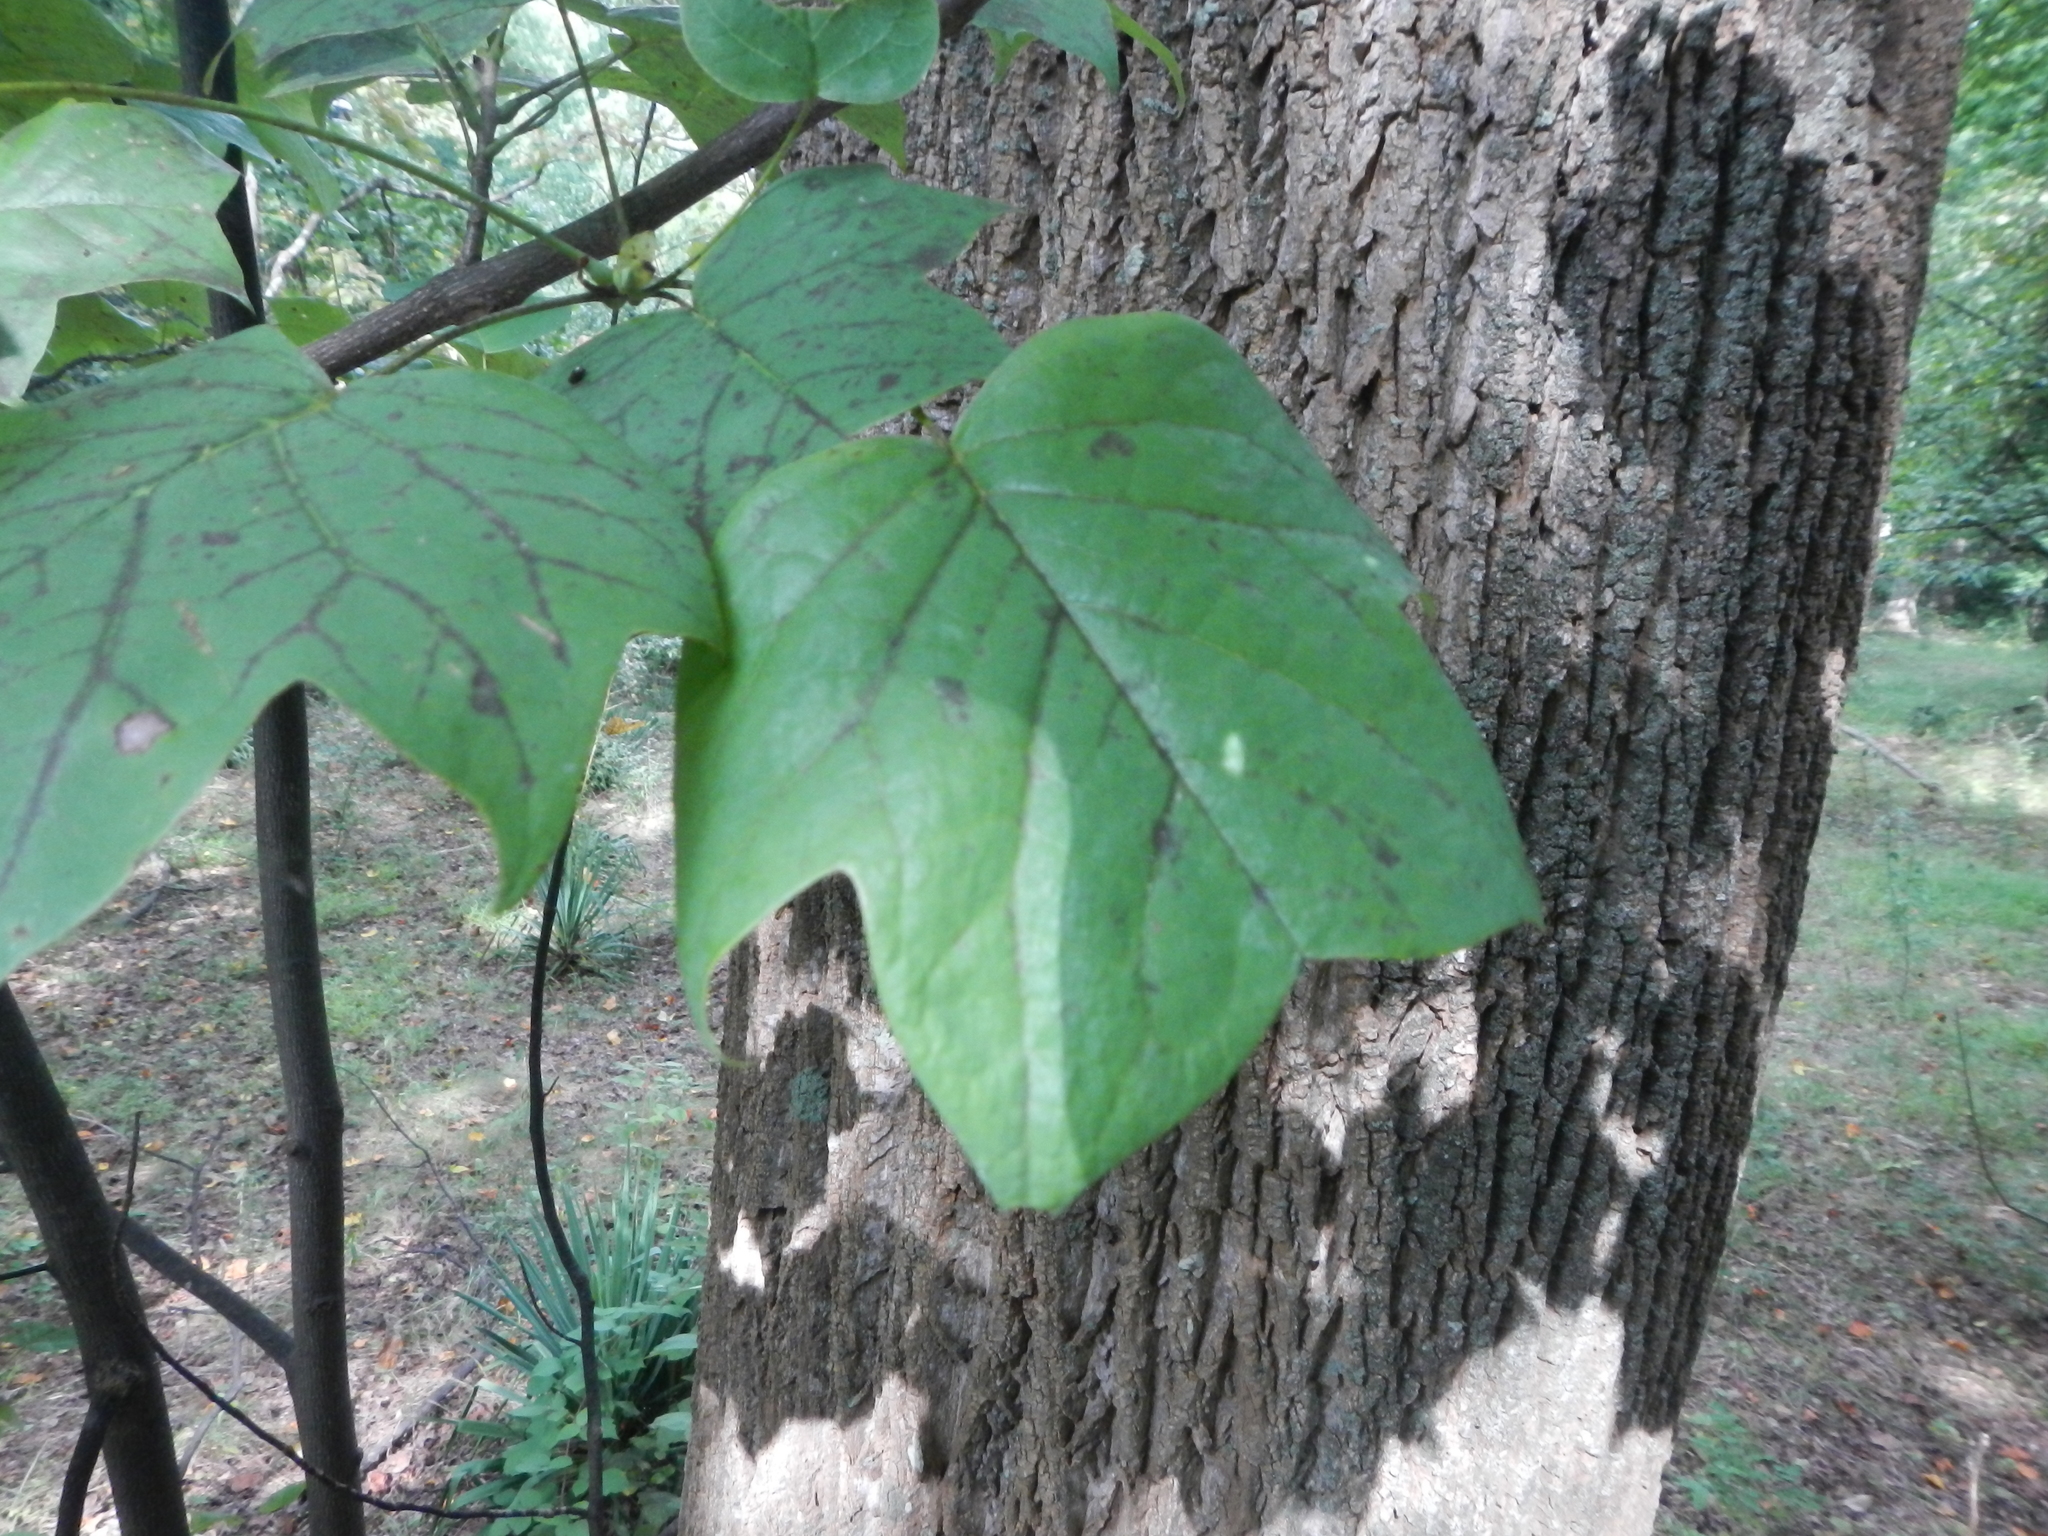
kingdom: Plantae
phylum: Tracheophyta
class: Magnoliopsida
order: Magnoliales
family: Magnoliaceae
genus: Liriodendron
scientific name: Liriodendron tulipifera
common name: Tulip tree
